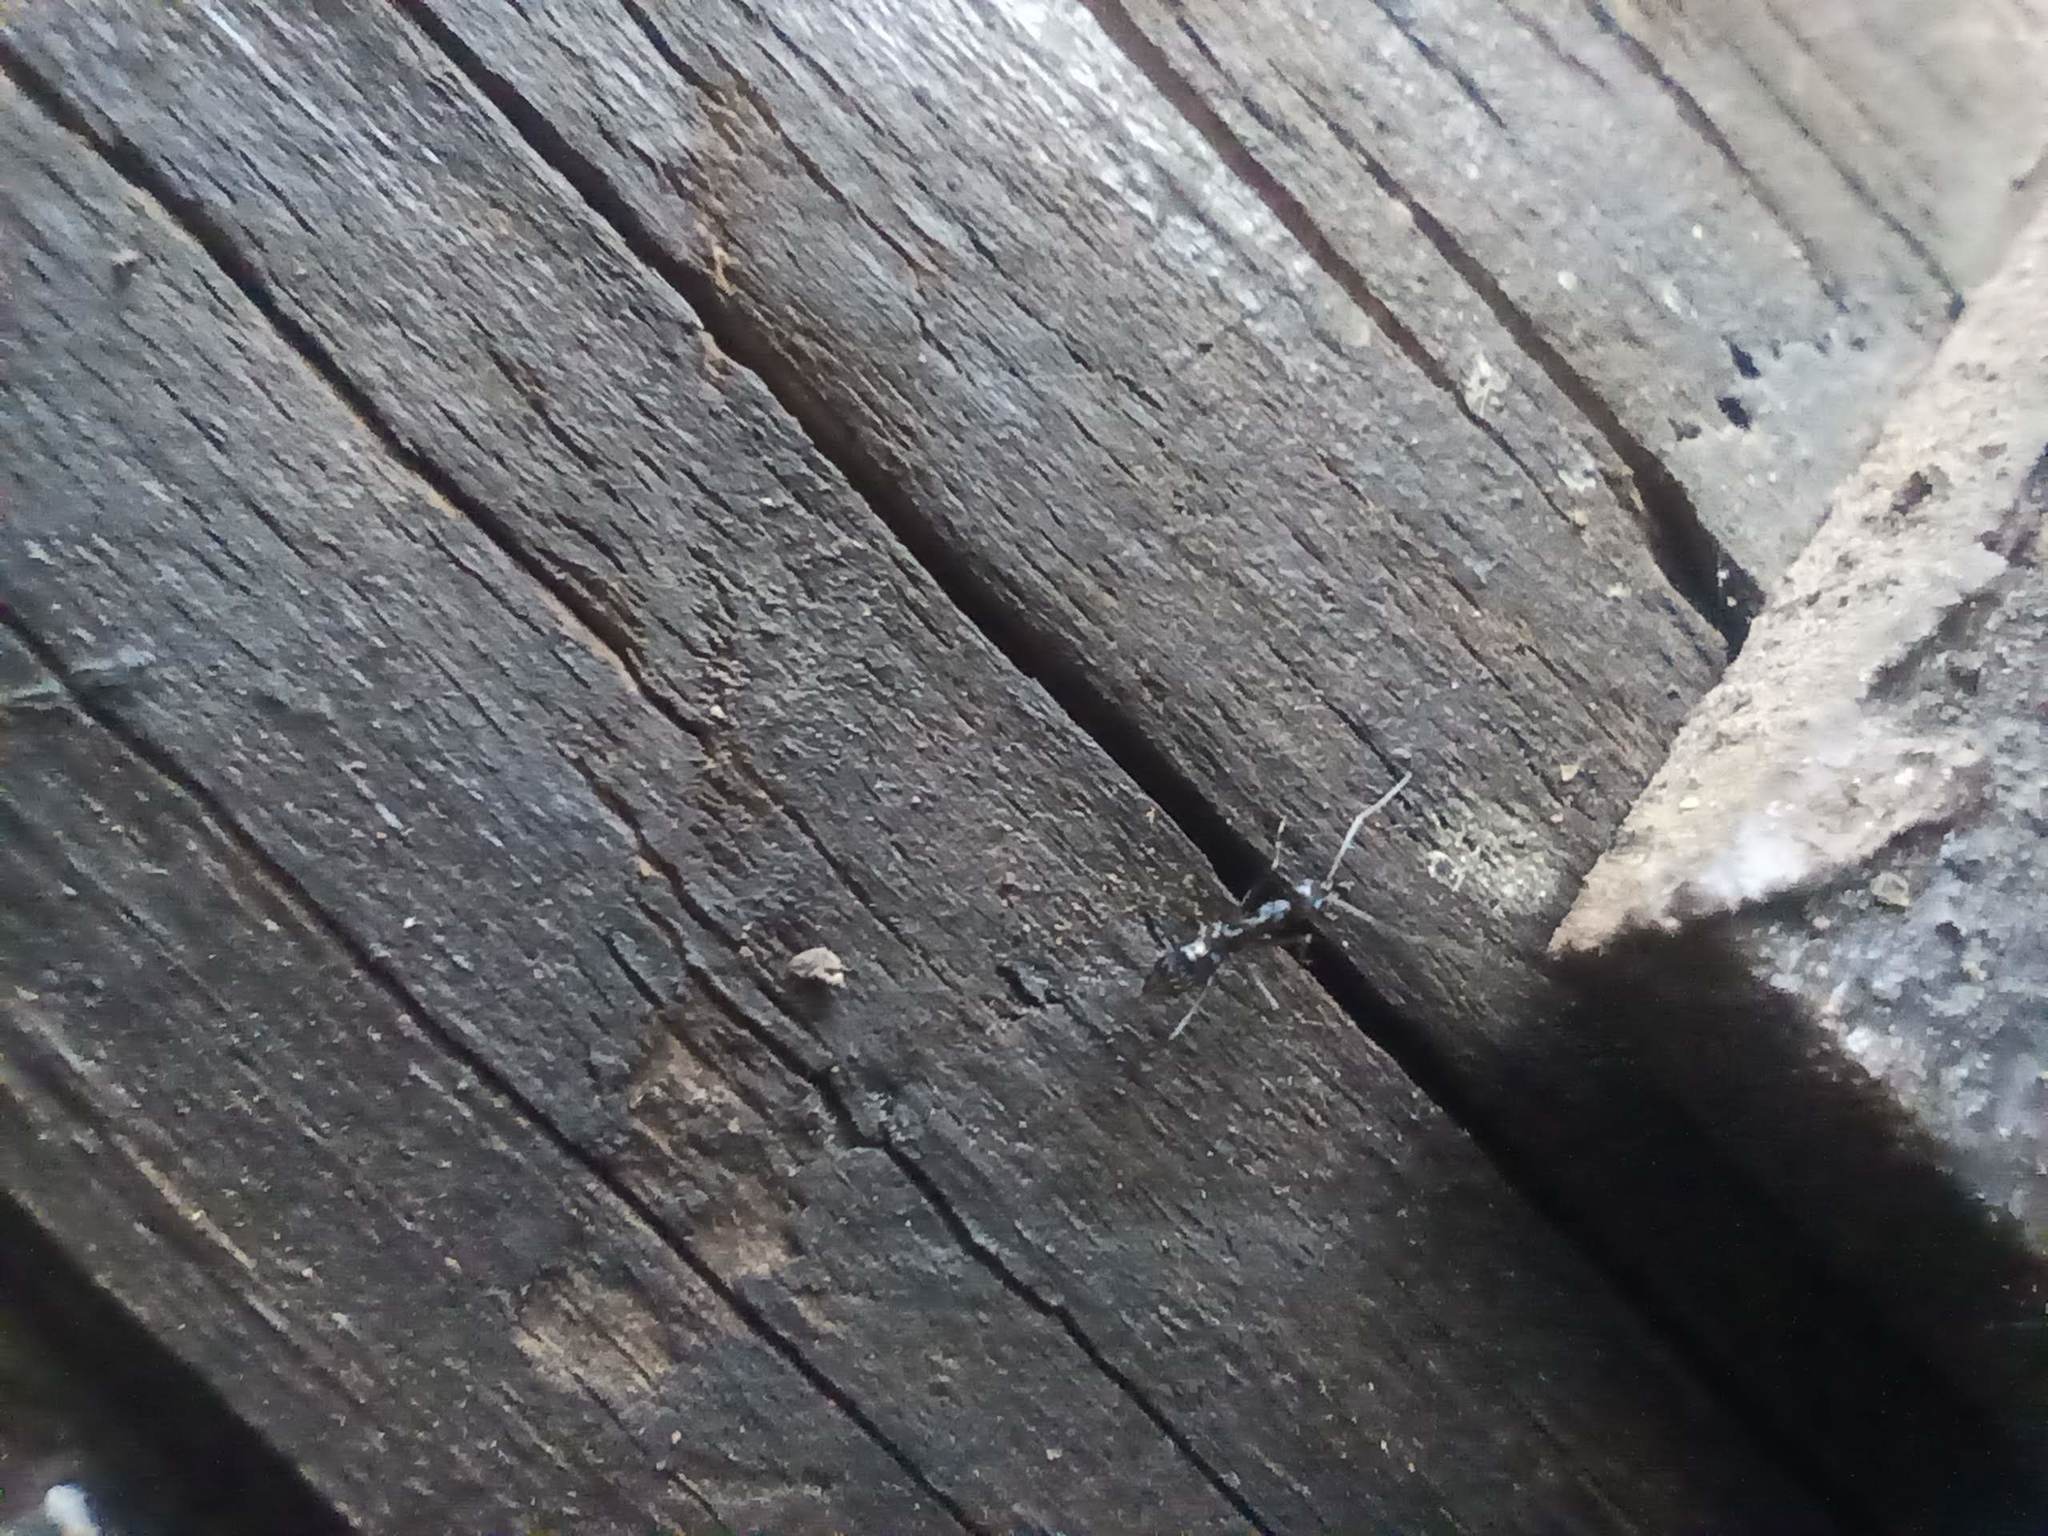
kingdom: Animalia
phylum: Arthropoda
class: Insecta
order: Hymenoptera
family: Formicidae
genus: Paratrechina
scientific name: Paratrechina longicornis
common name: Longhorned crazy ant
